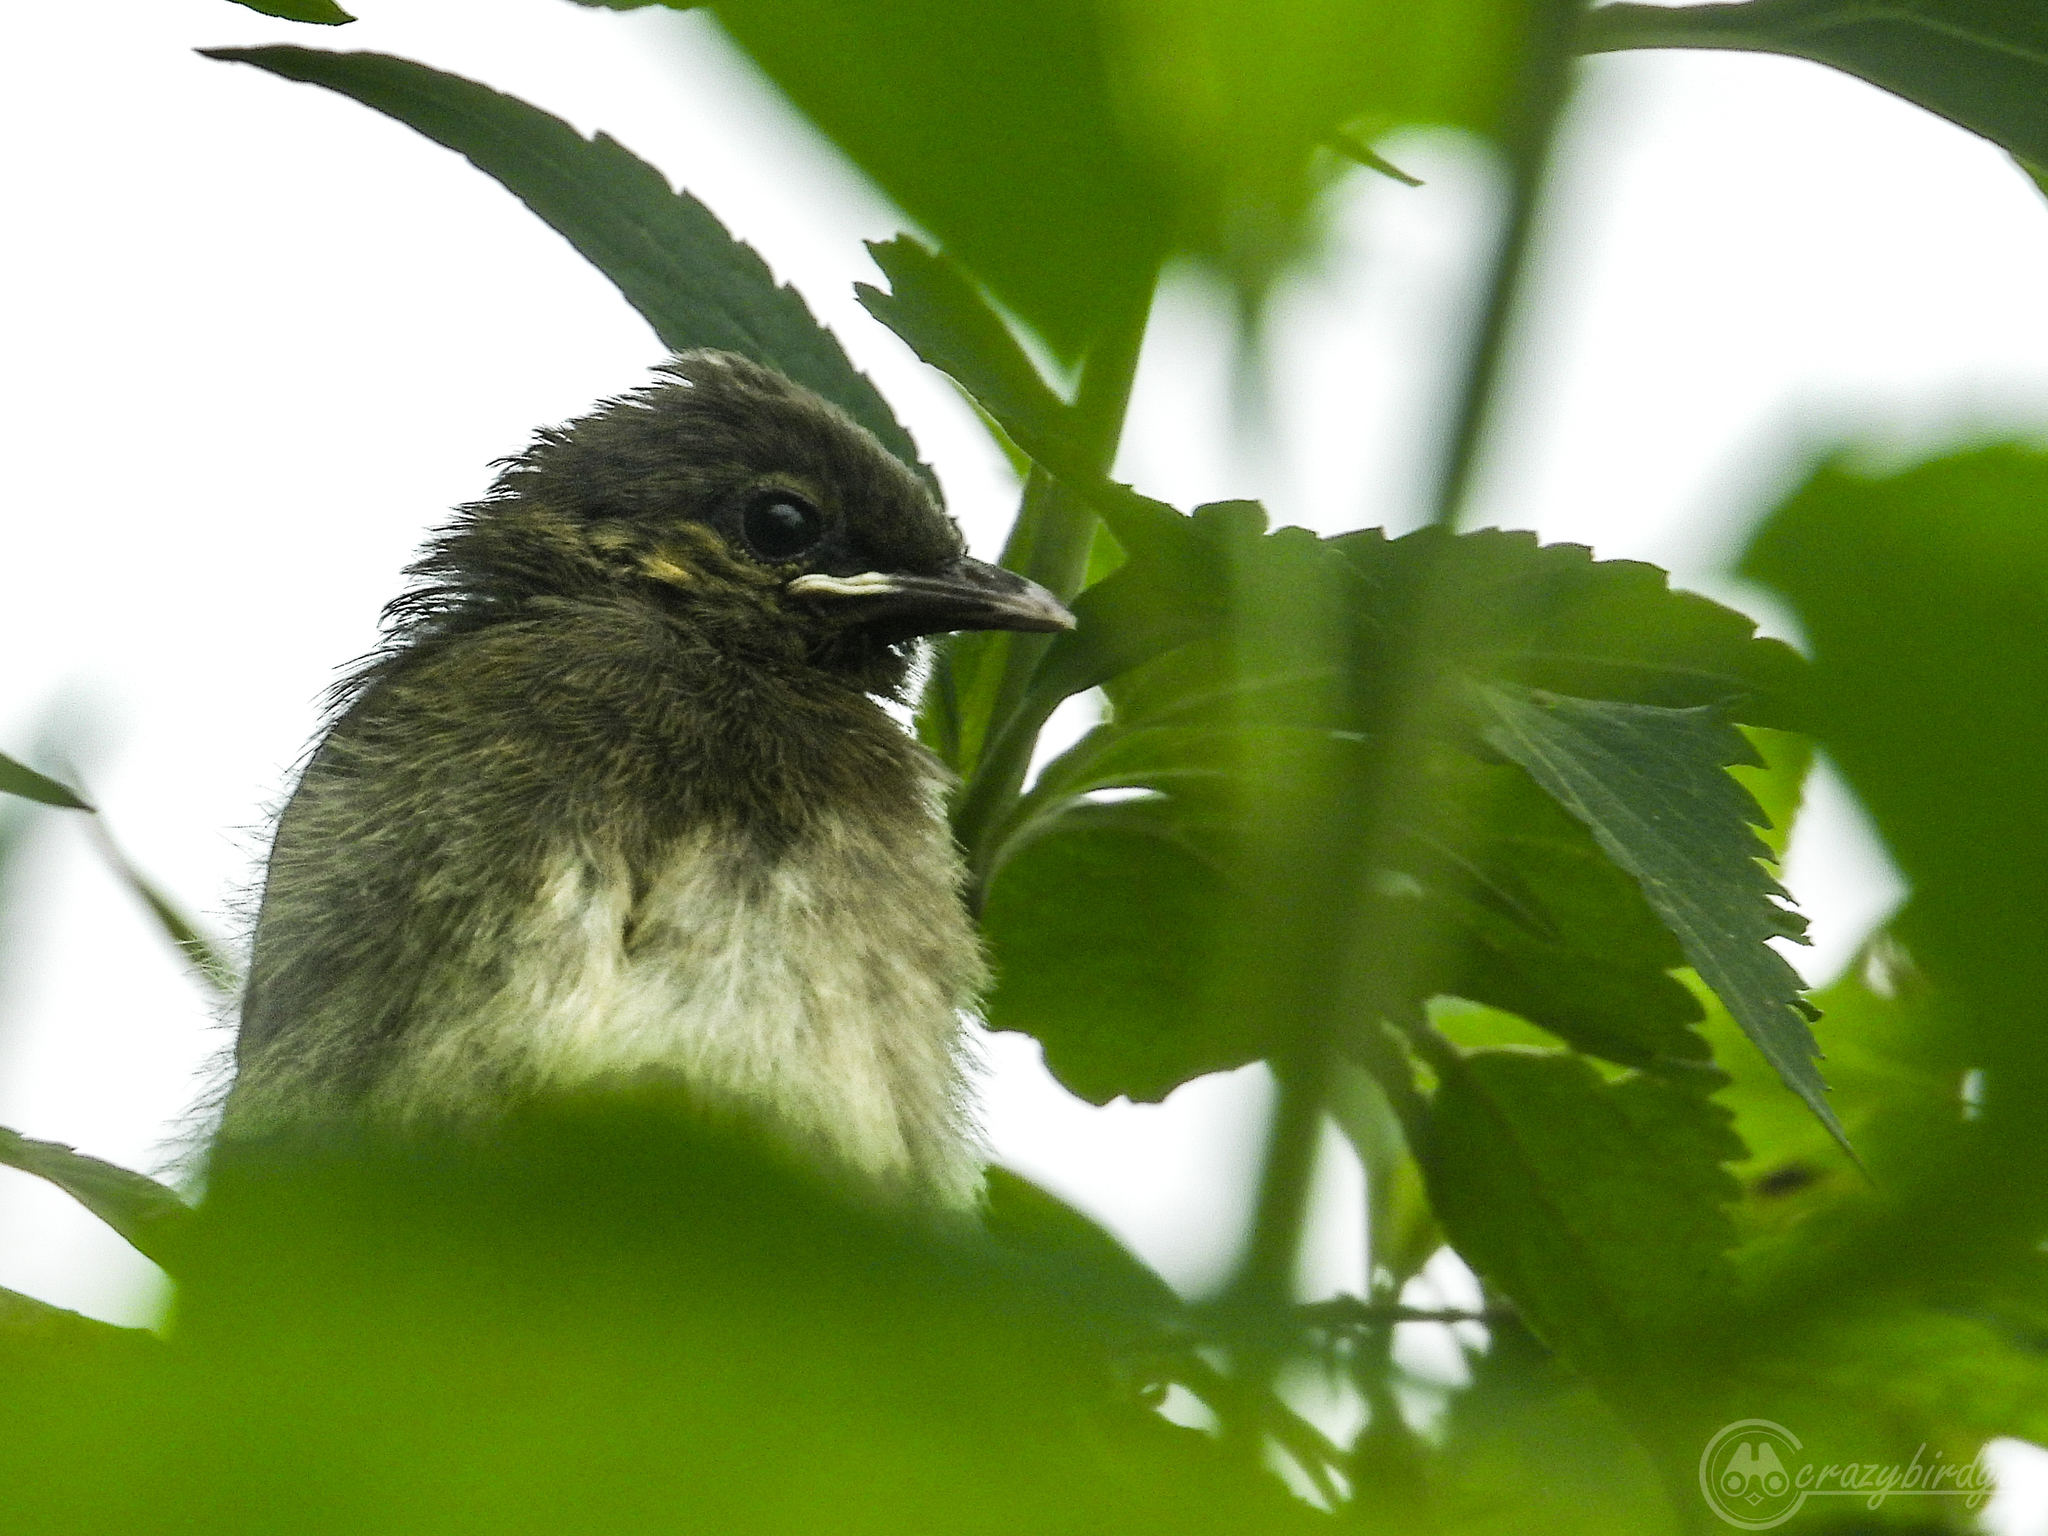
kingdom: Animalia
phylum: Chordata
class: Aves
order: Passeriformes
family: Pycnonotidae
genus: Pycnonotus
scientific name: Pycnonotus bimaculatus
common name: Orange-spotted bulbul
